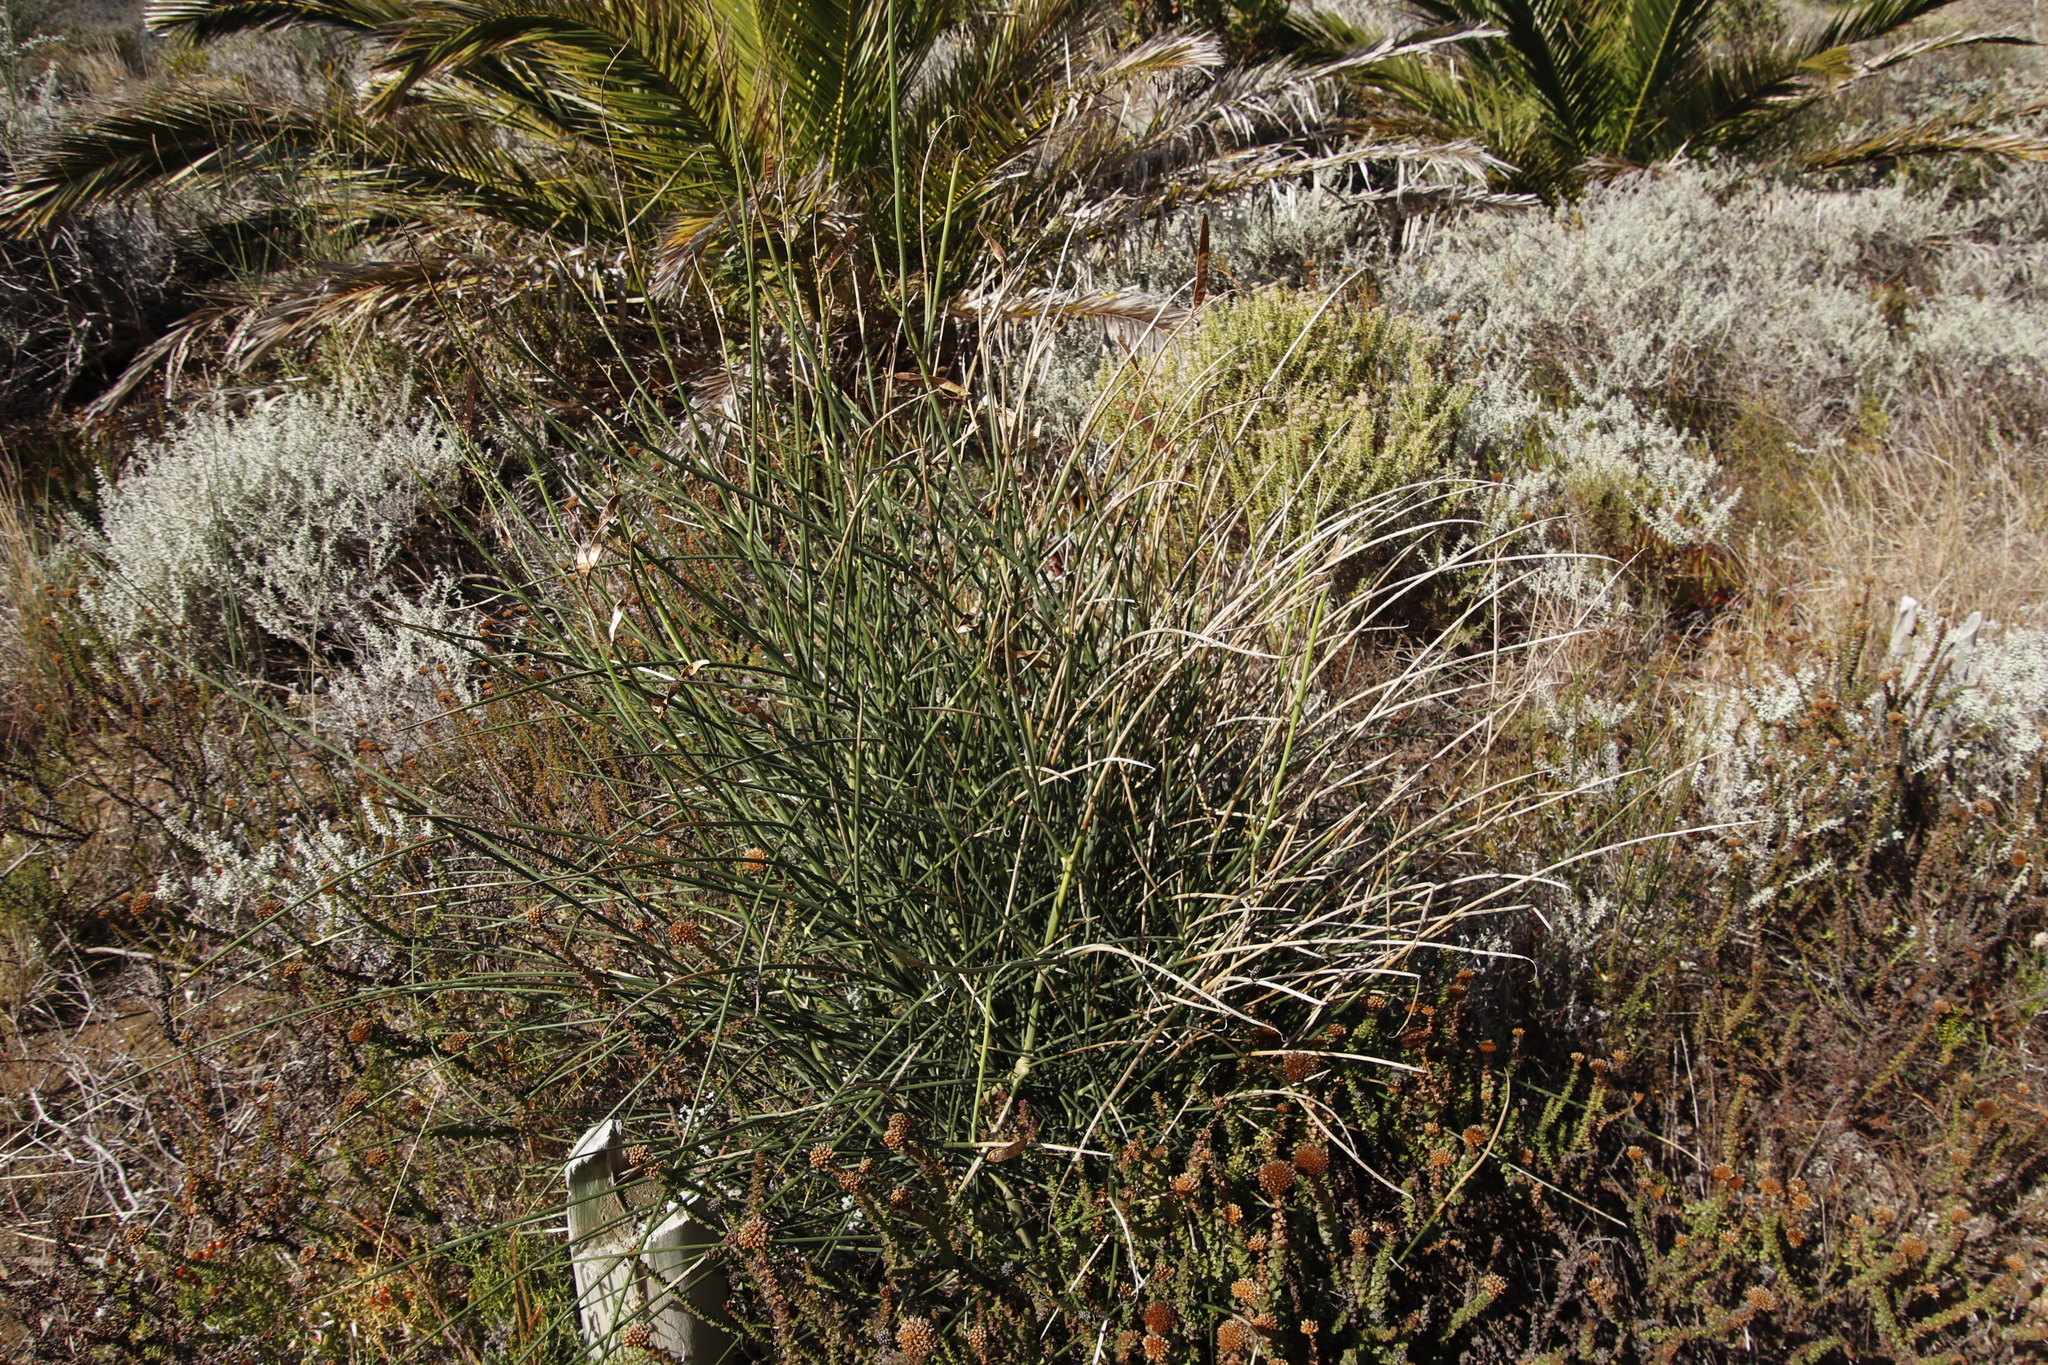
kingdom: Plantae
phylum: Tracheophyta
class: Magnoliopsida
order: Fabales
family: Fabaceae
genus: Spartium
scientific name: Spartium junceum
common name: Spanish broom
